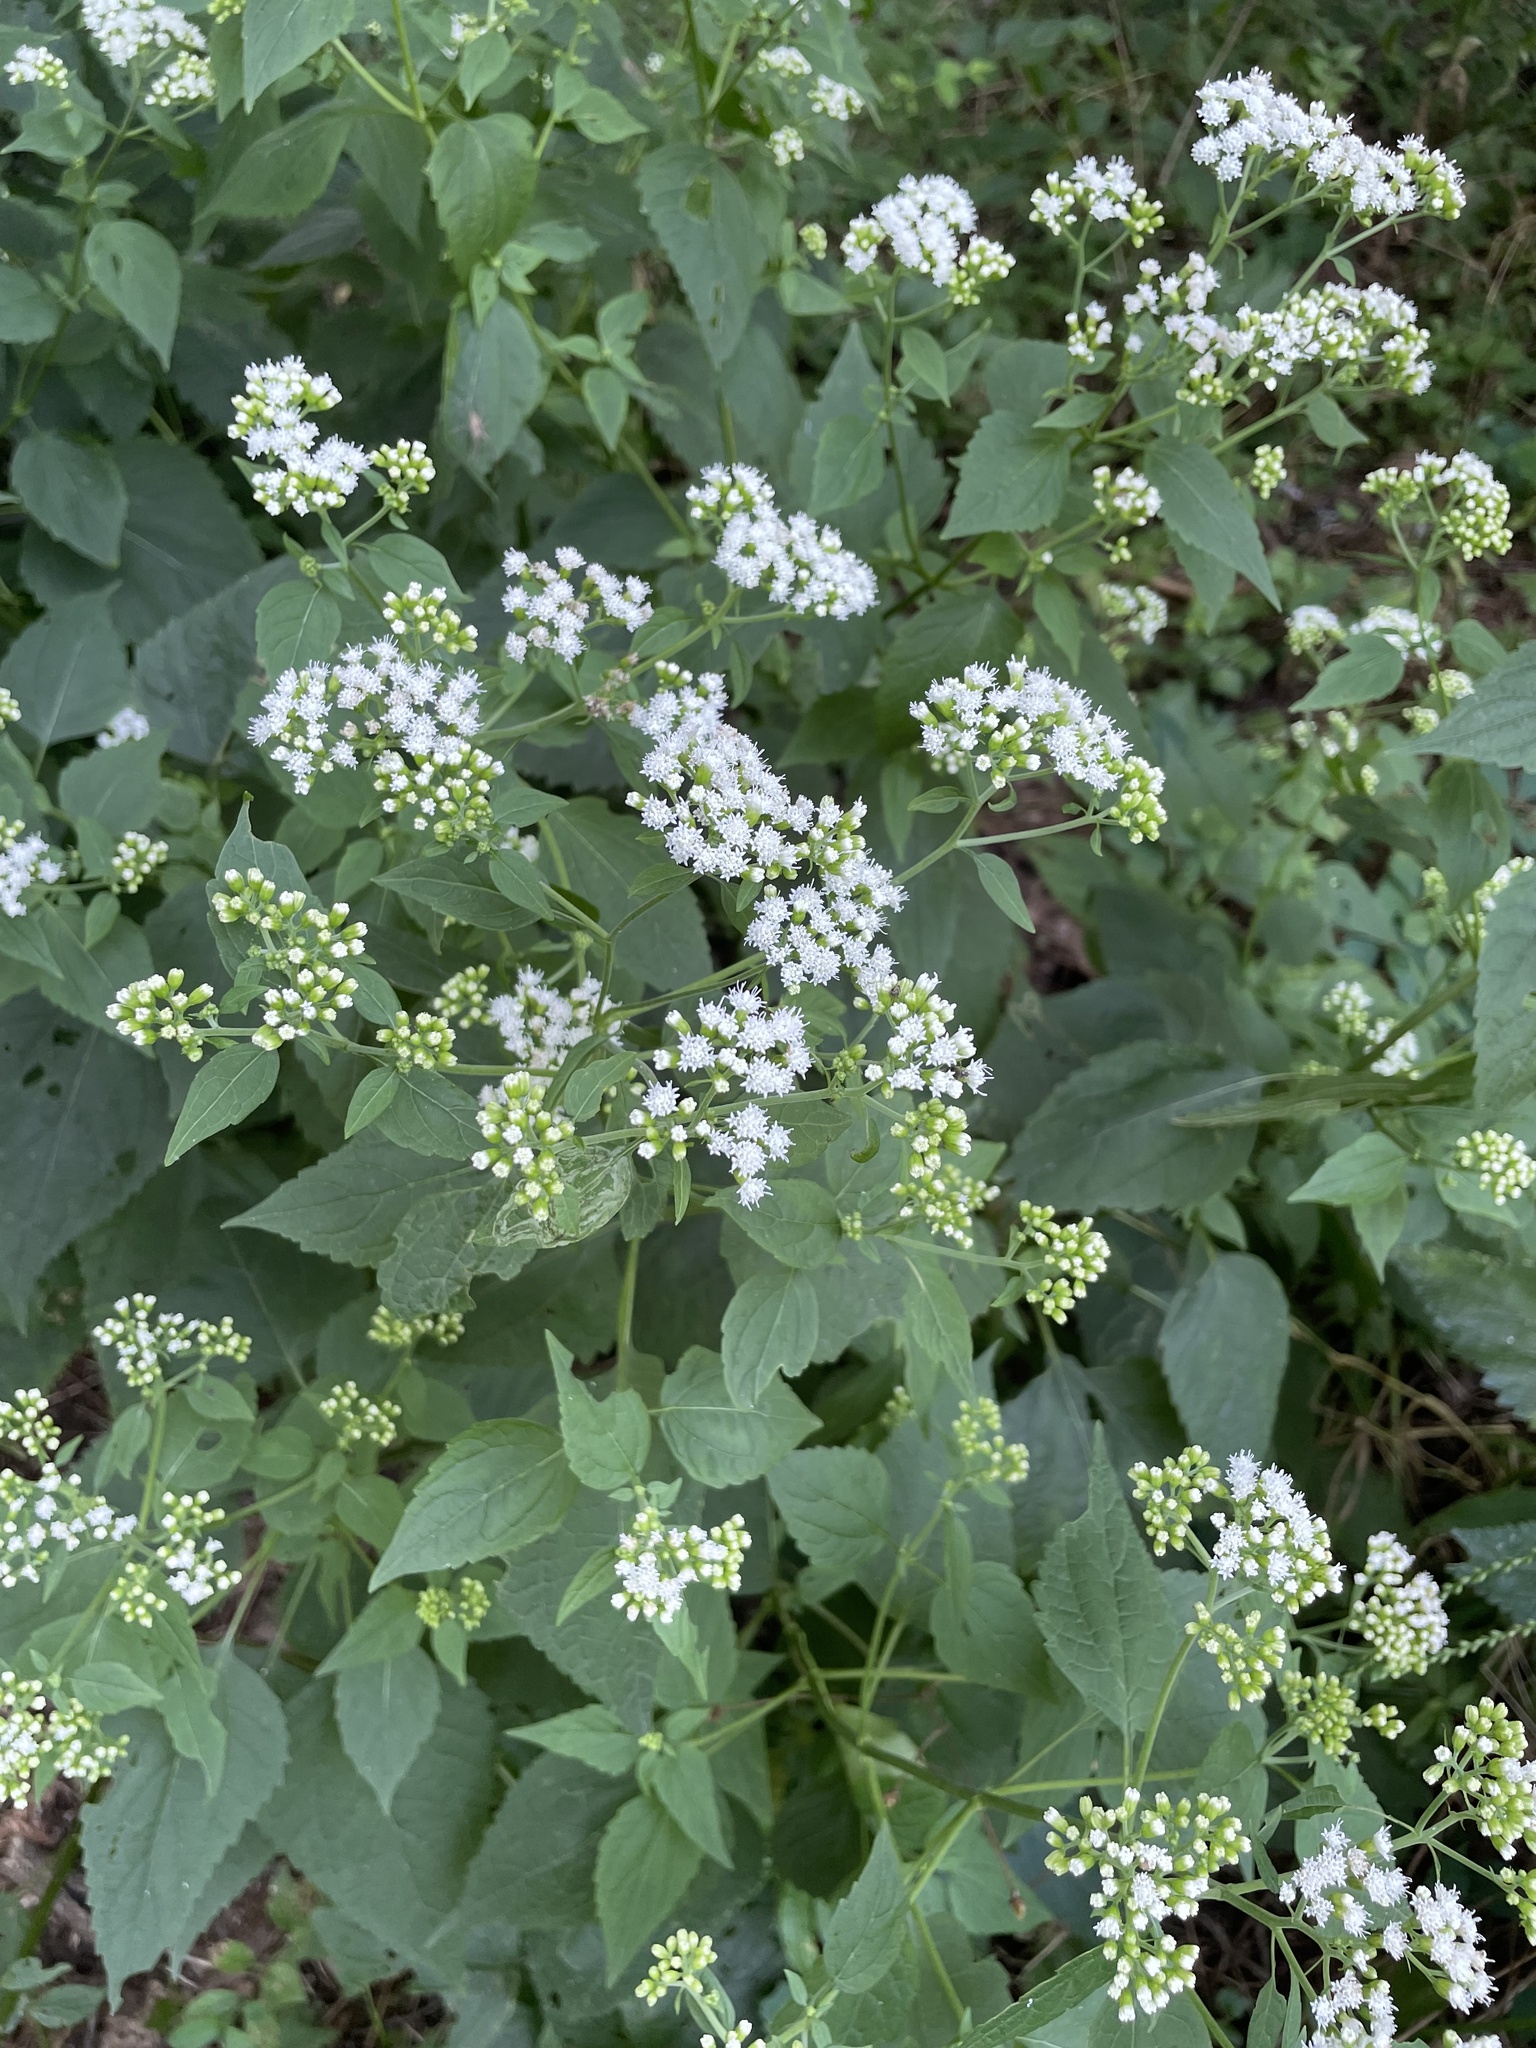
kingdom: Plantae
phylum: Tracheophyta
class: Magnoliopsida
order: Asterales
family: Asteraceae
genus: Ageratina
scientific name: Ageratina altissima
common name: White snakeroot
